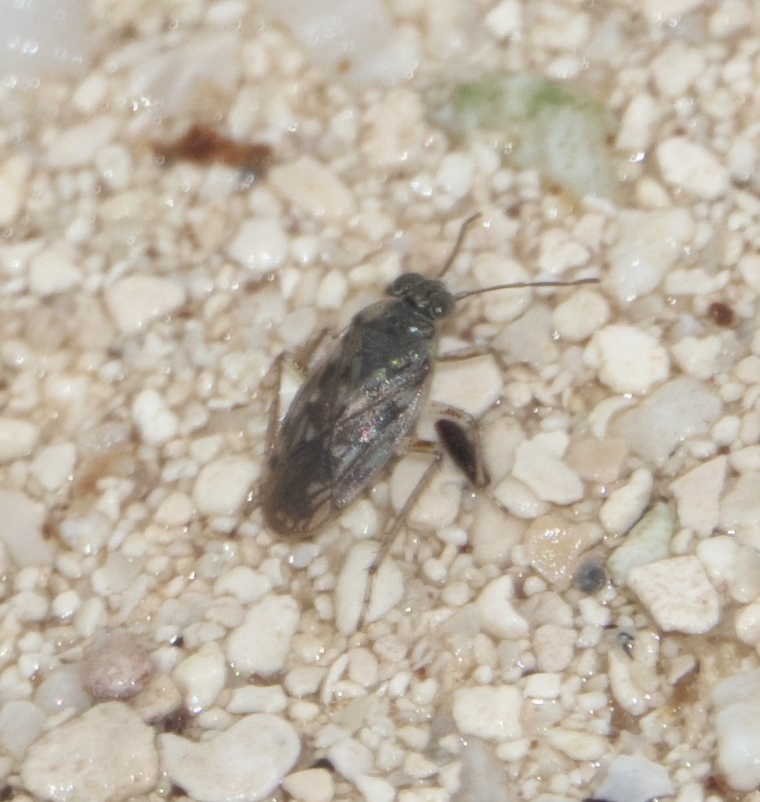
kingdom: Animalia
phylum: Arthropoda
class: Insecta
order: Hemiptera
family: Saldidae
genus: Pentacora
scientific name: Pentacora sphacelata
